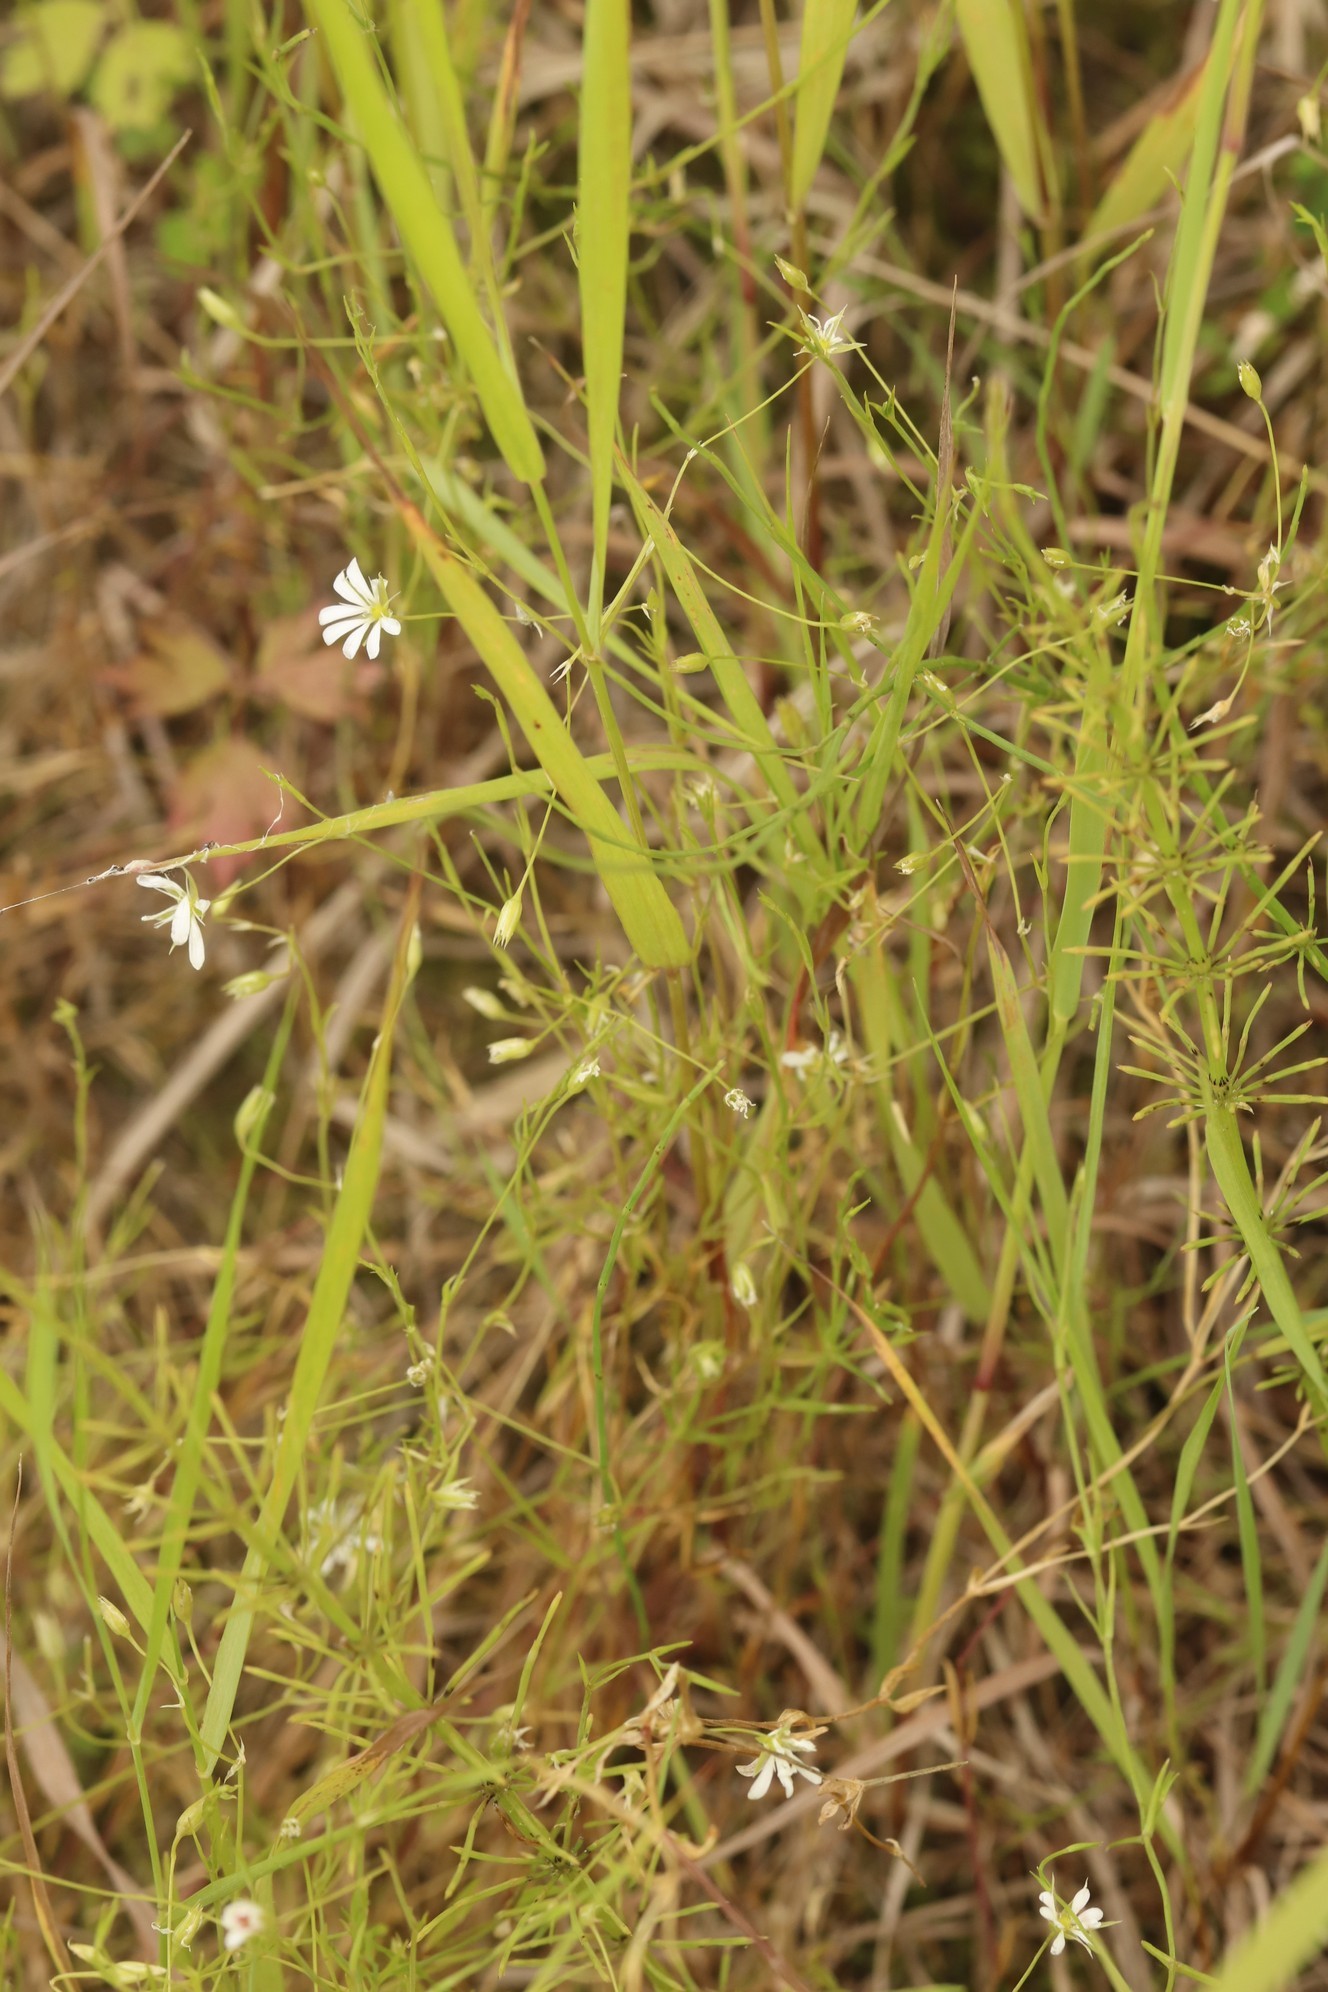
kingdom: Plantae
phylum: Tracheophyta
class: Magnoliopsida
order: Caryophyllales
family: Caryophyllaceae
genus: Stellaria
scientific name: Stellaria palustris
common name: Marsh stitchwort
